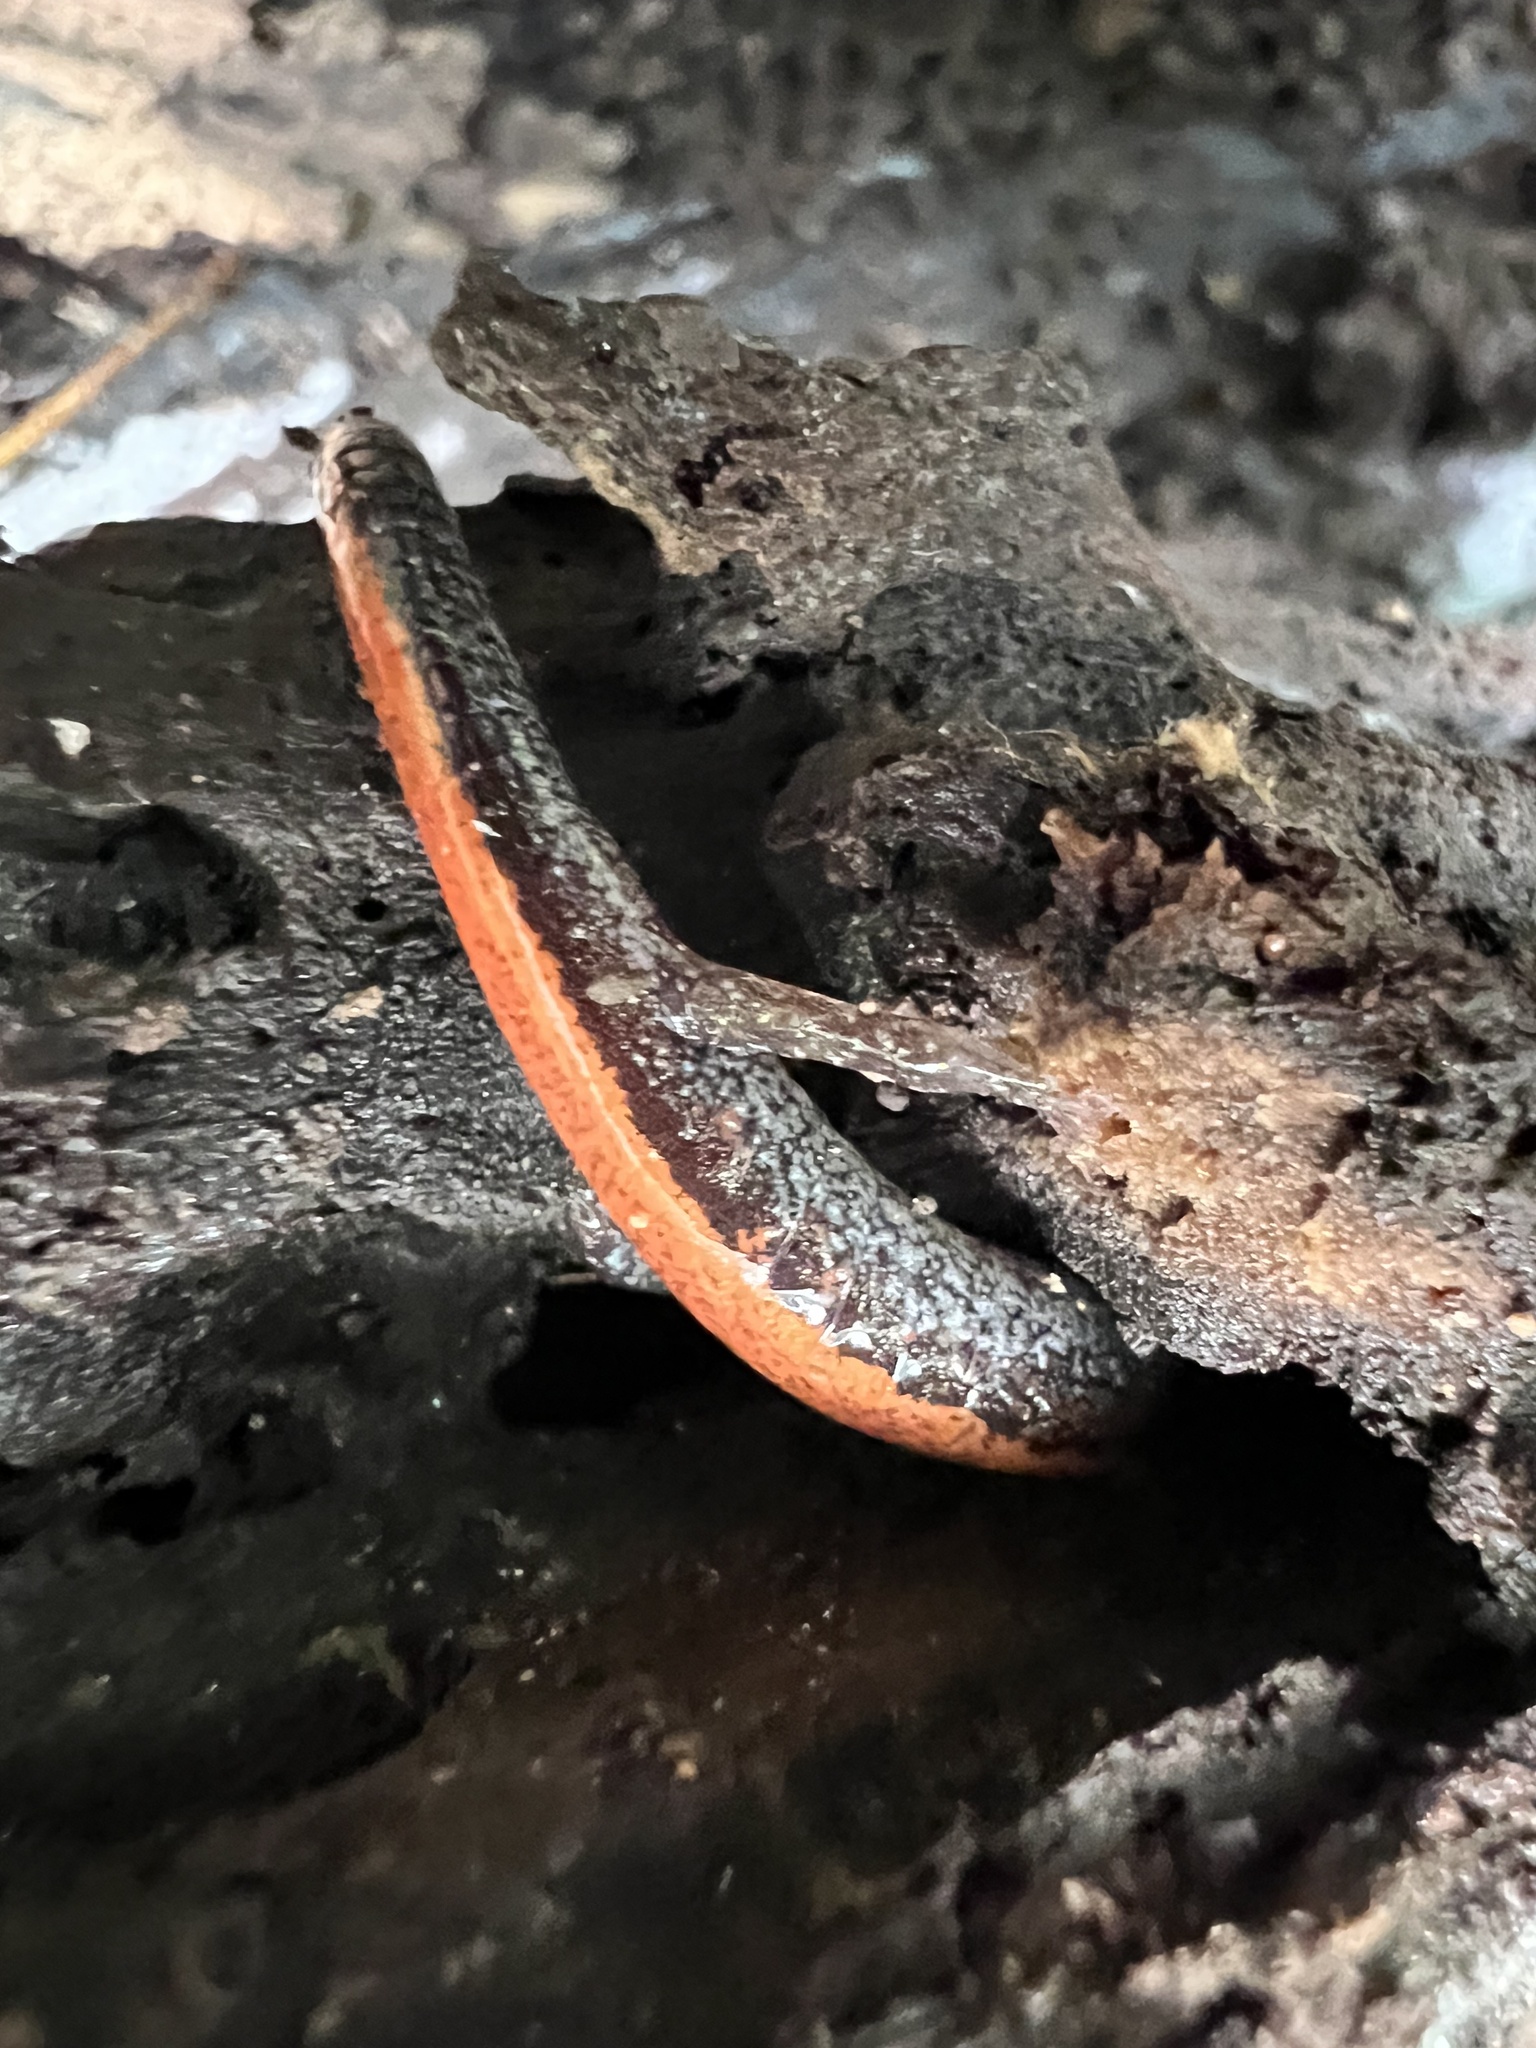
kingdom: Animalia
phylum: Chordata
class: Amphibia
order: Caudata
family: Plethodontidae
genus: Plethodon
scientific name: Plethodon cinereus
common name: Redback salamander
